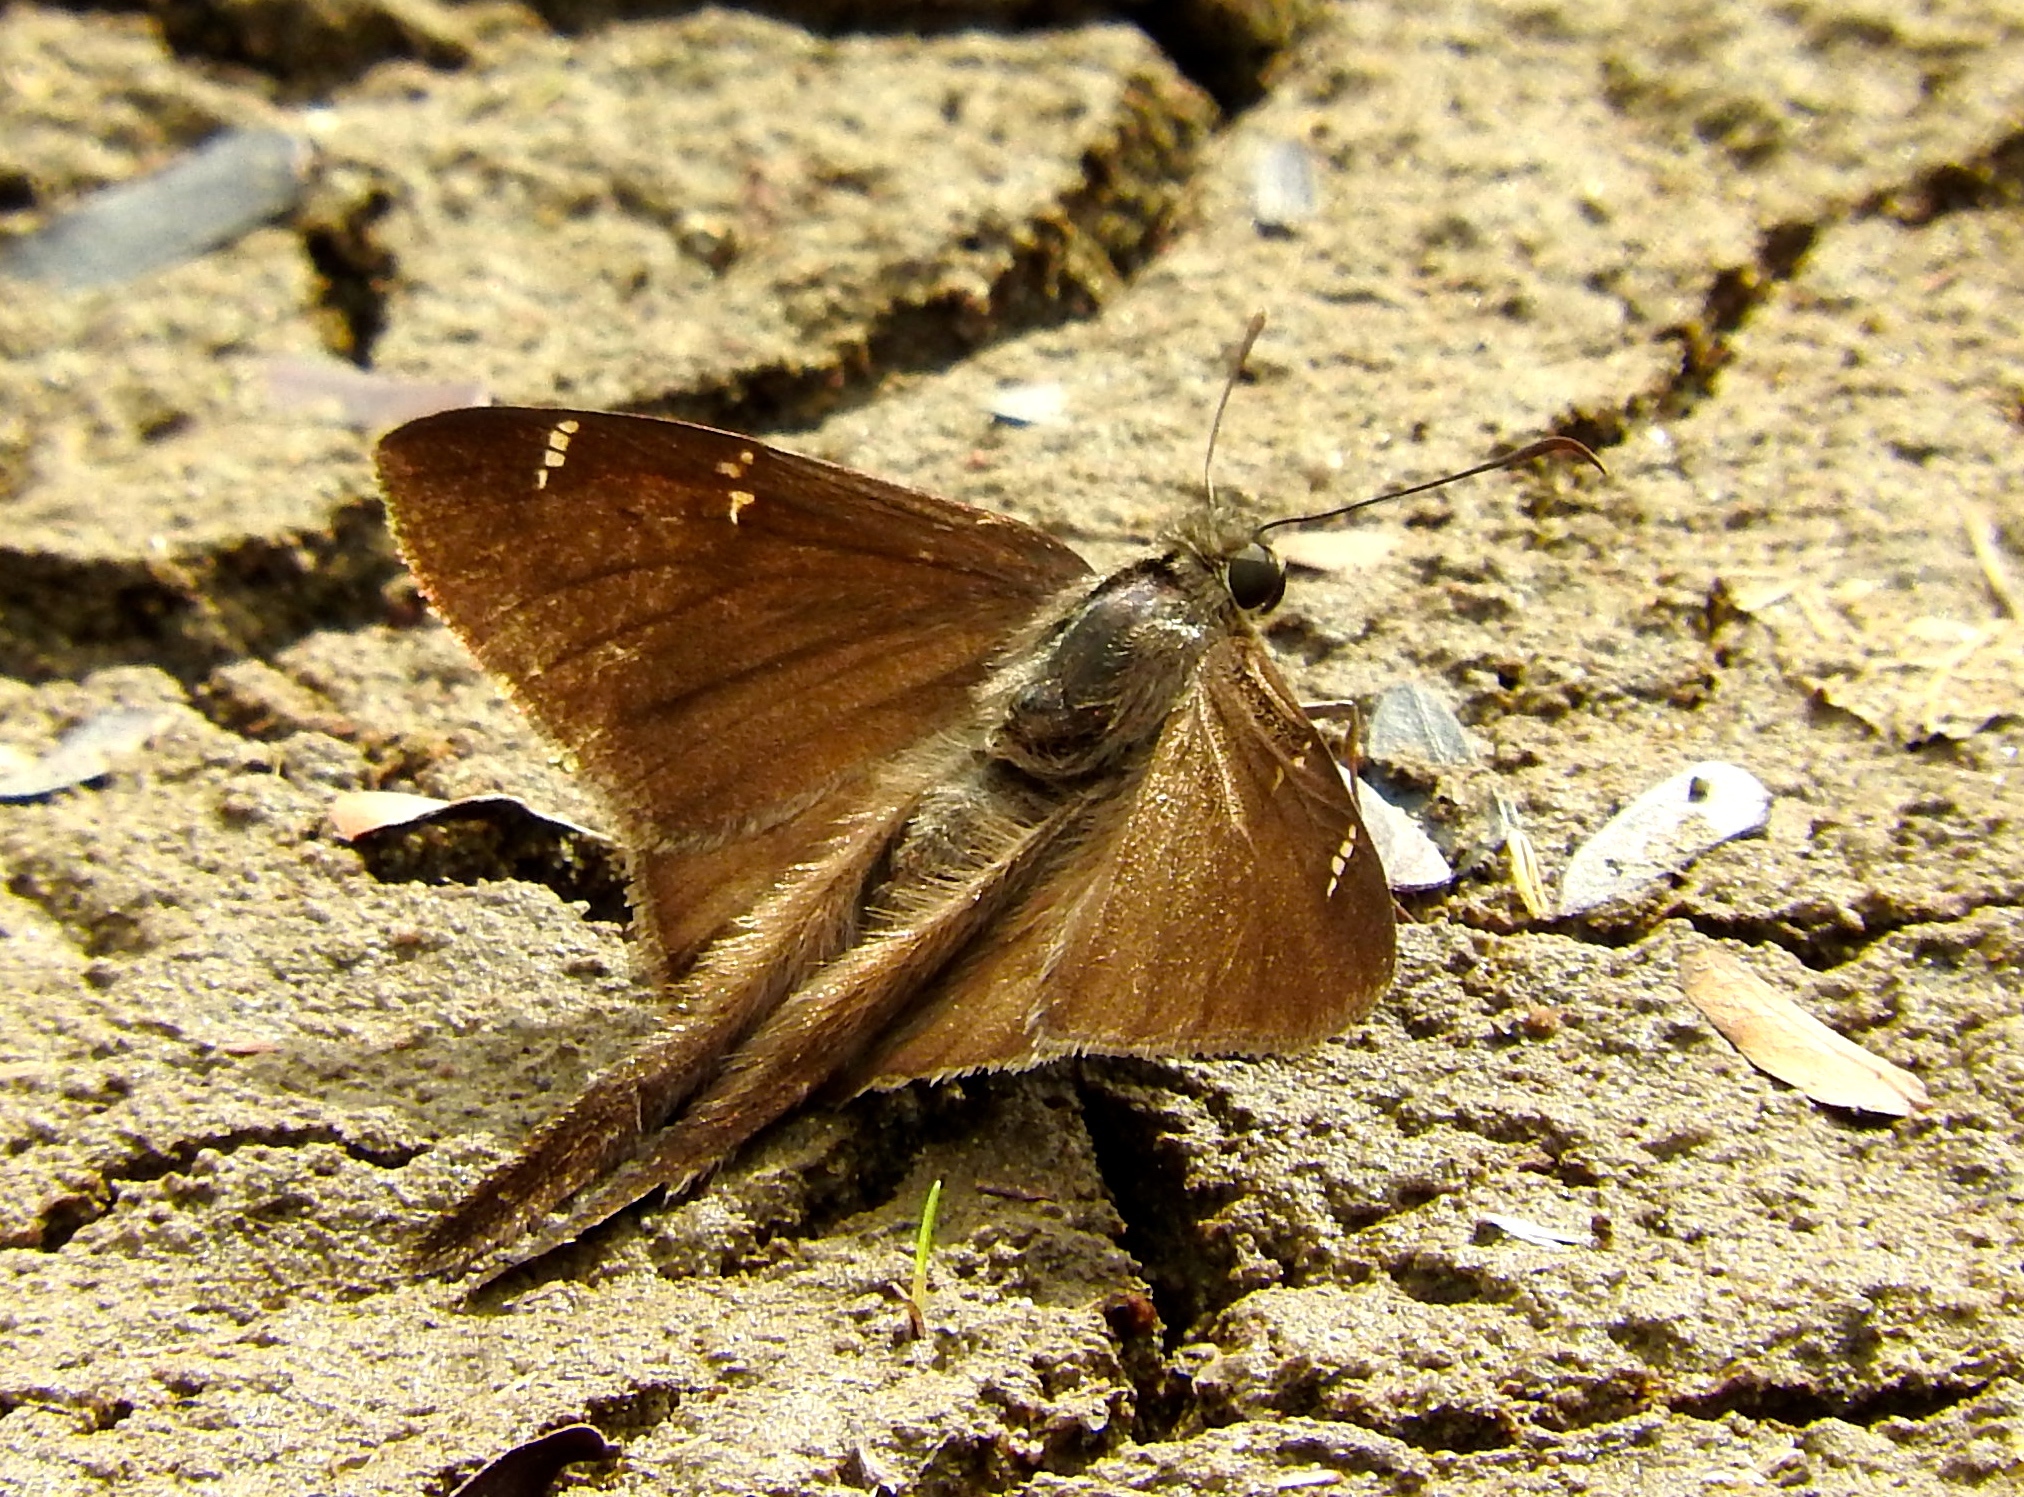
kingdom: Animalia
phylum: Arthropoda
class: Insecta
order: Lepidoptera
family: Hesperiidae
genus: Urbanus
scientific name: Urbanus procne
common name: Brown longtail
